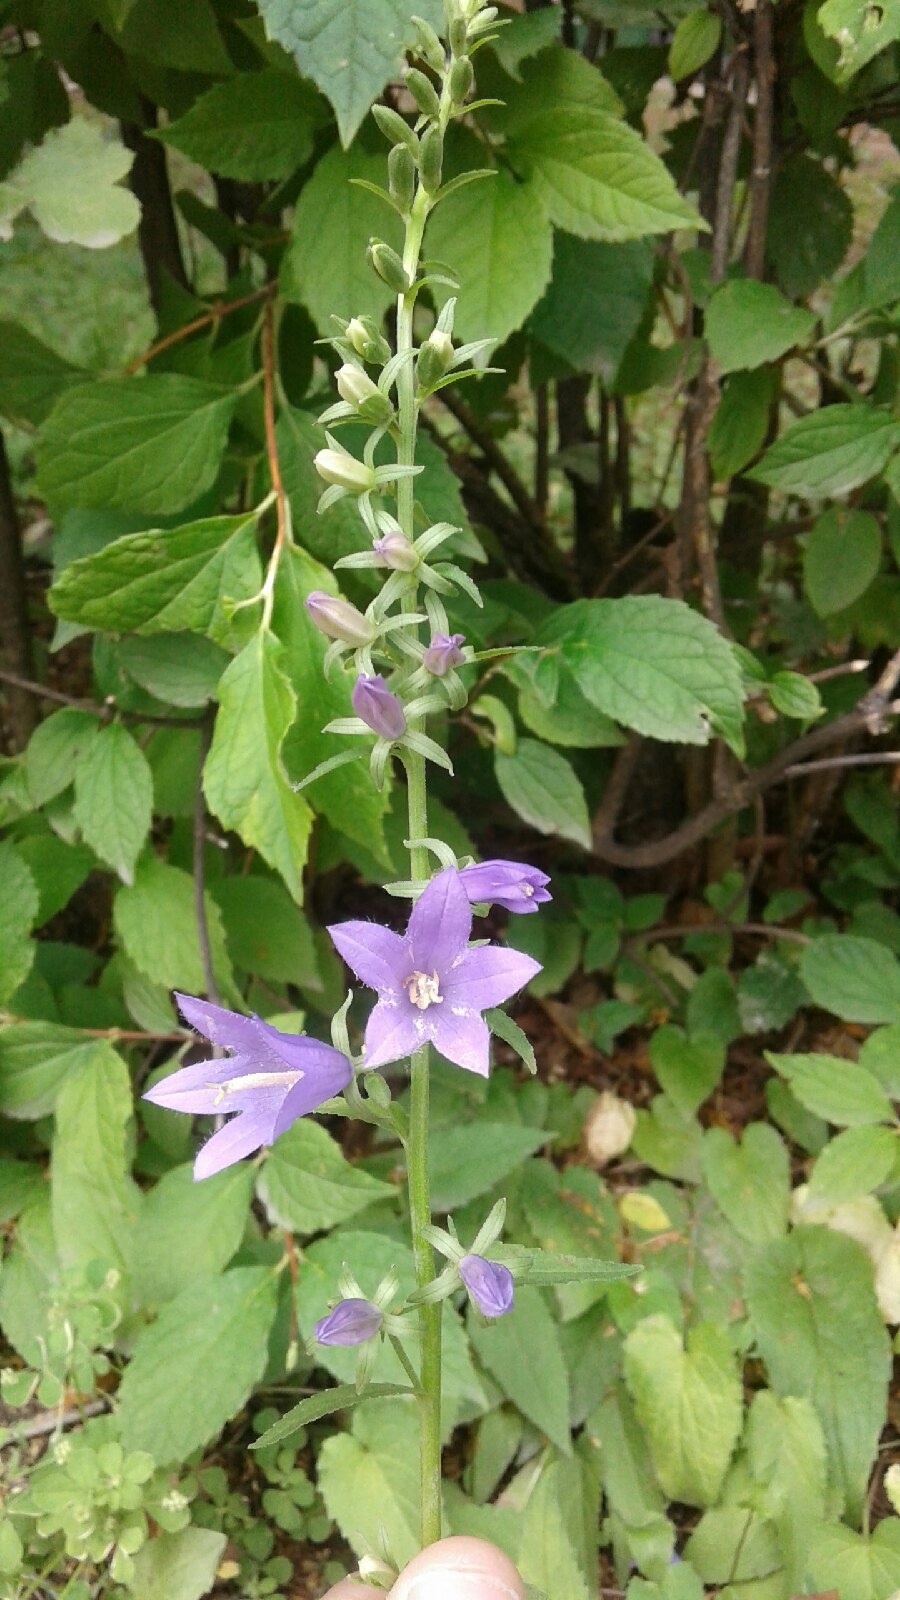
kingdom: Plantae
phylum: Tracheophyta
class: Magnoliopsida
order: Asterales
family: Campanulaceae
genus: Campanula
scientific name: Campanula rapunculoides
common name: Creeping bellflower
